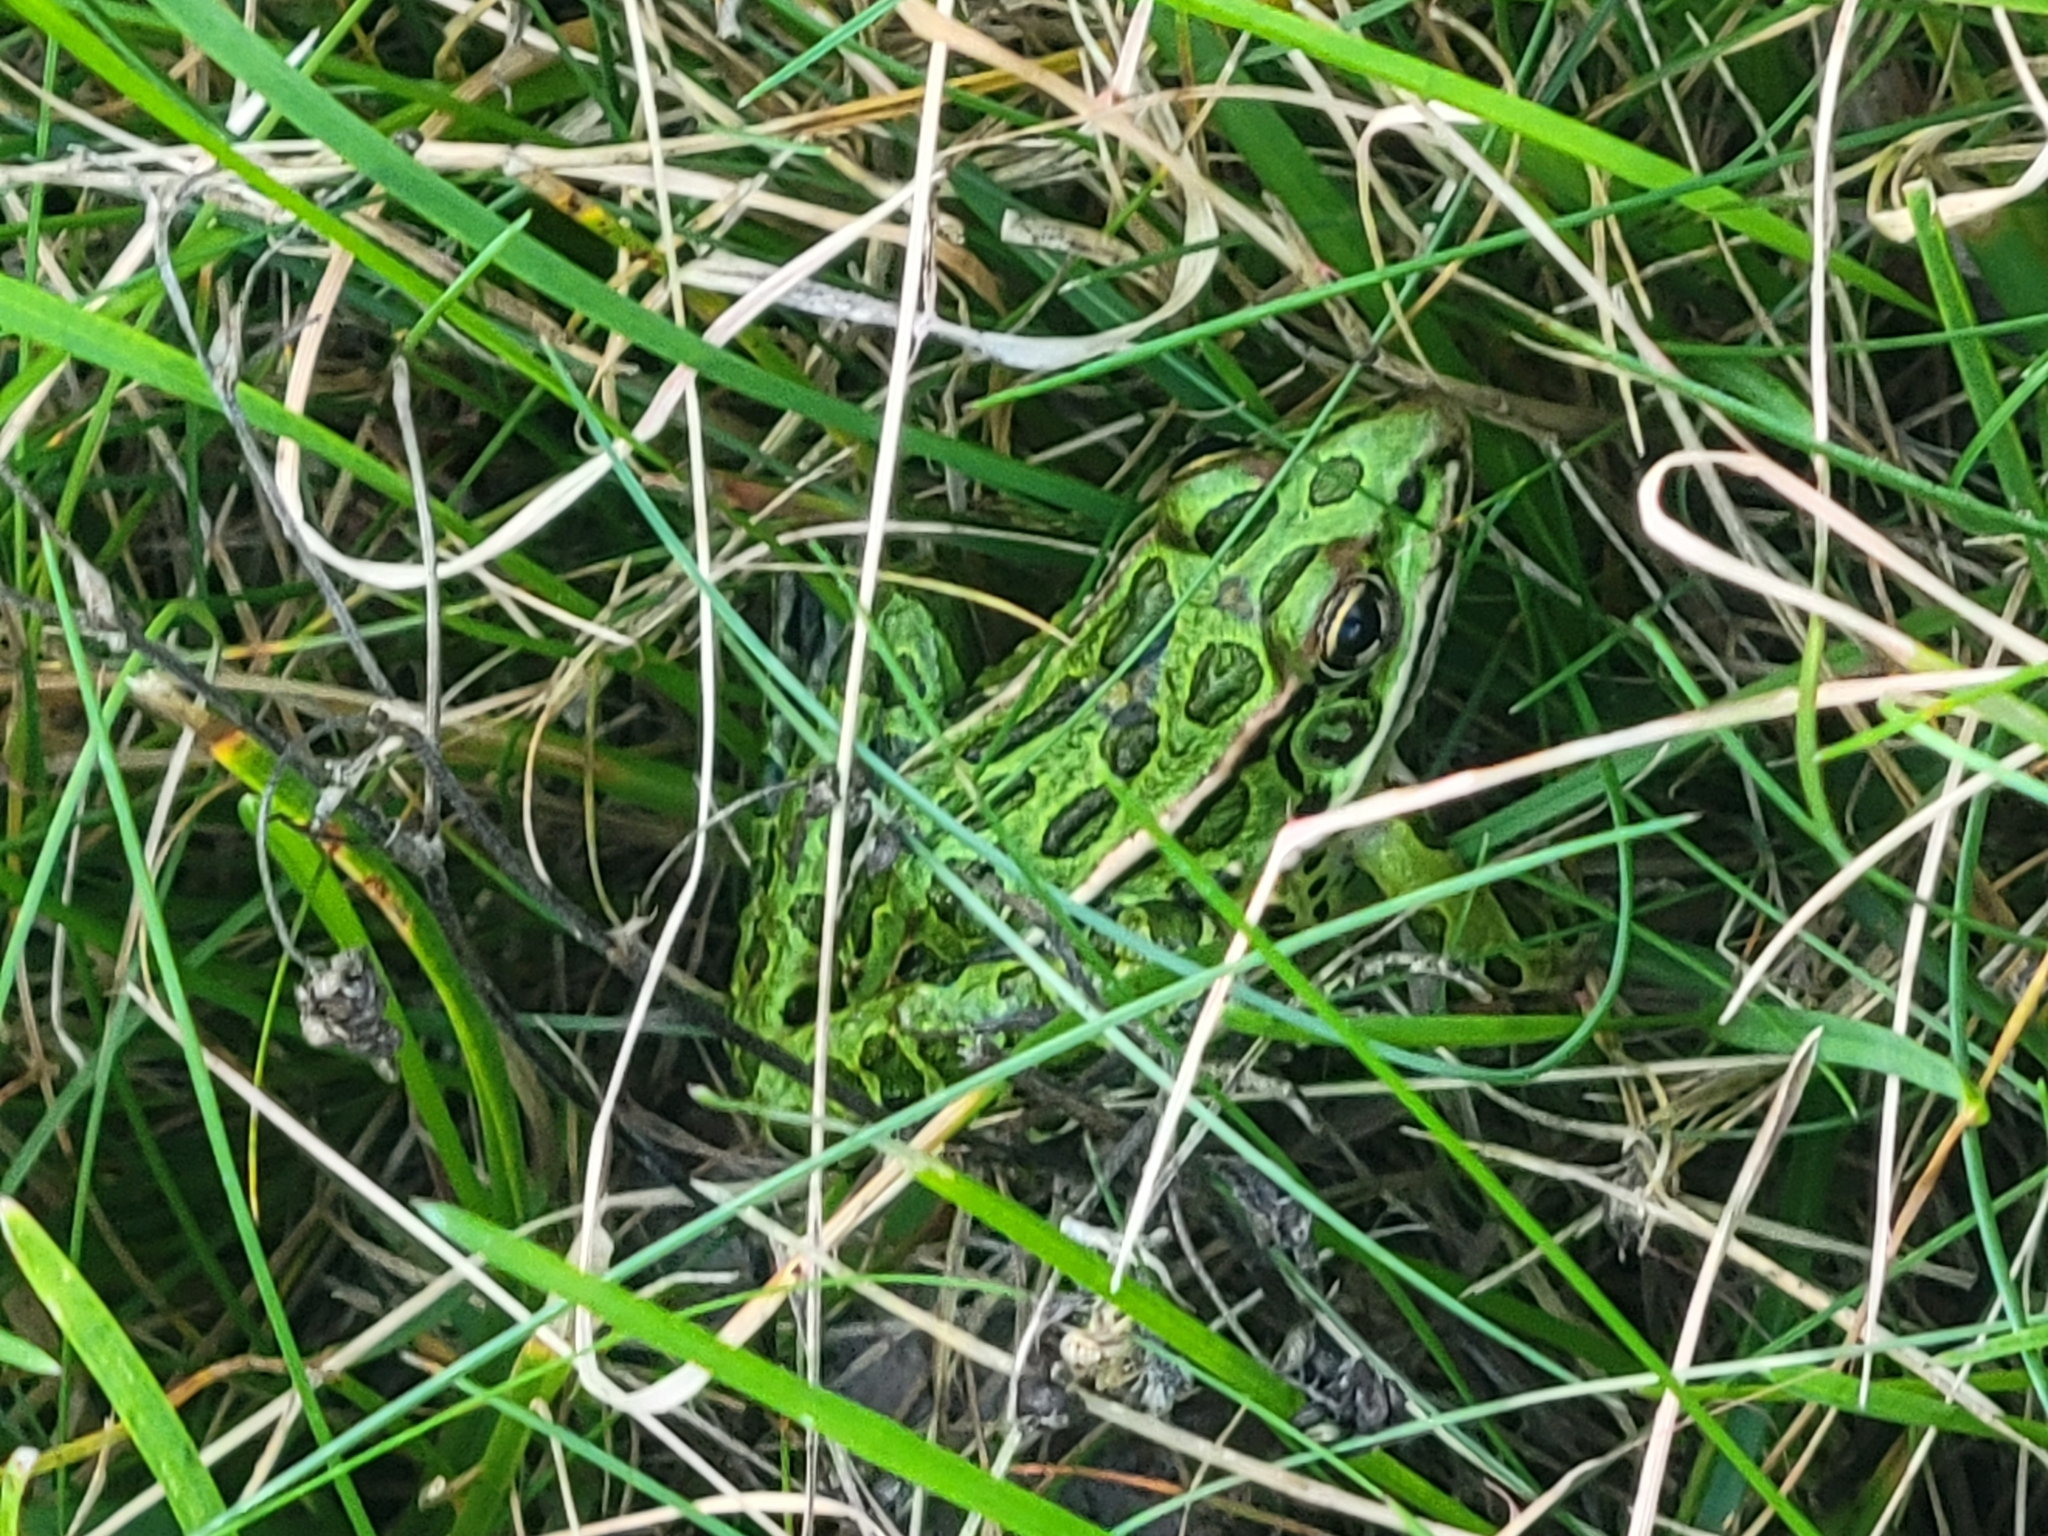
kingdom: Animalia
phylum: Chordata
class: Amphibia
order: Anura
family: Ranidae
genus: Lithobates
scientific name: Lithobates pipiens
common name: Northern leopard frog
